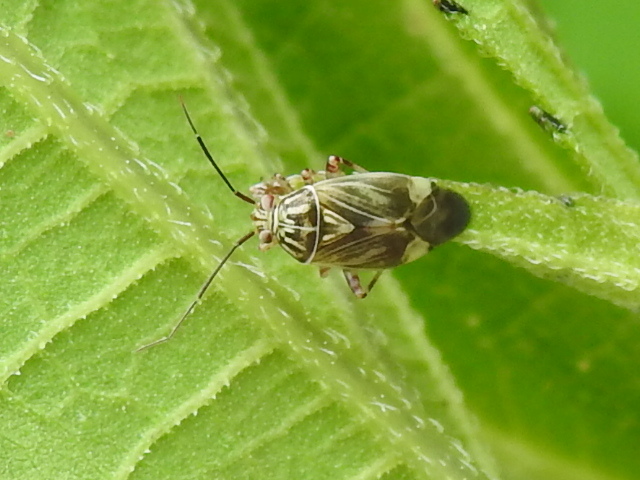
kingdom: Animalia
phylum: Arthropoda
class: Insecta
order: Hemiptera
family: Miridae
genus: Lygus
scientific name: Lygus lineolaris
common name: North american tarnished plant bug
